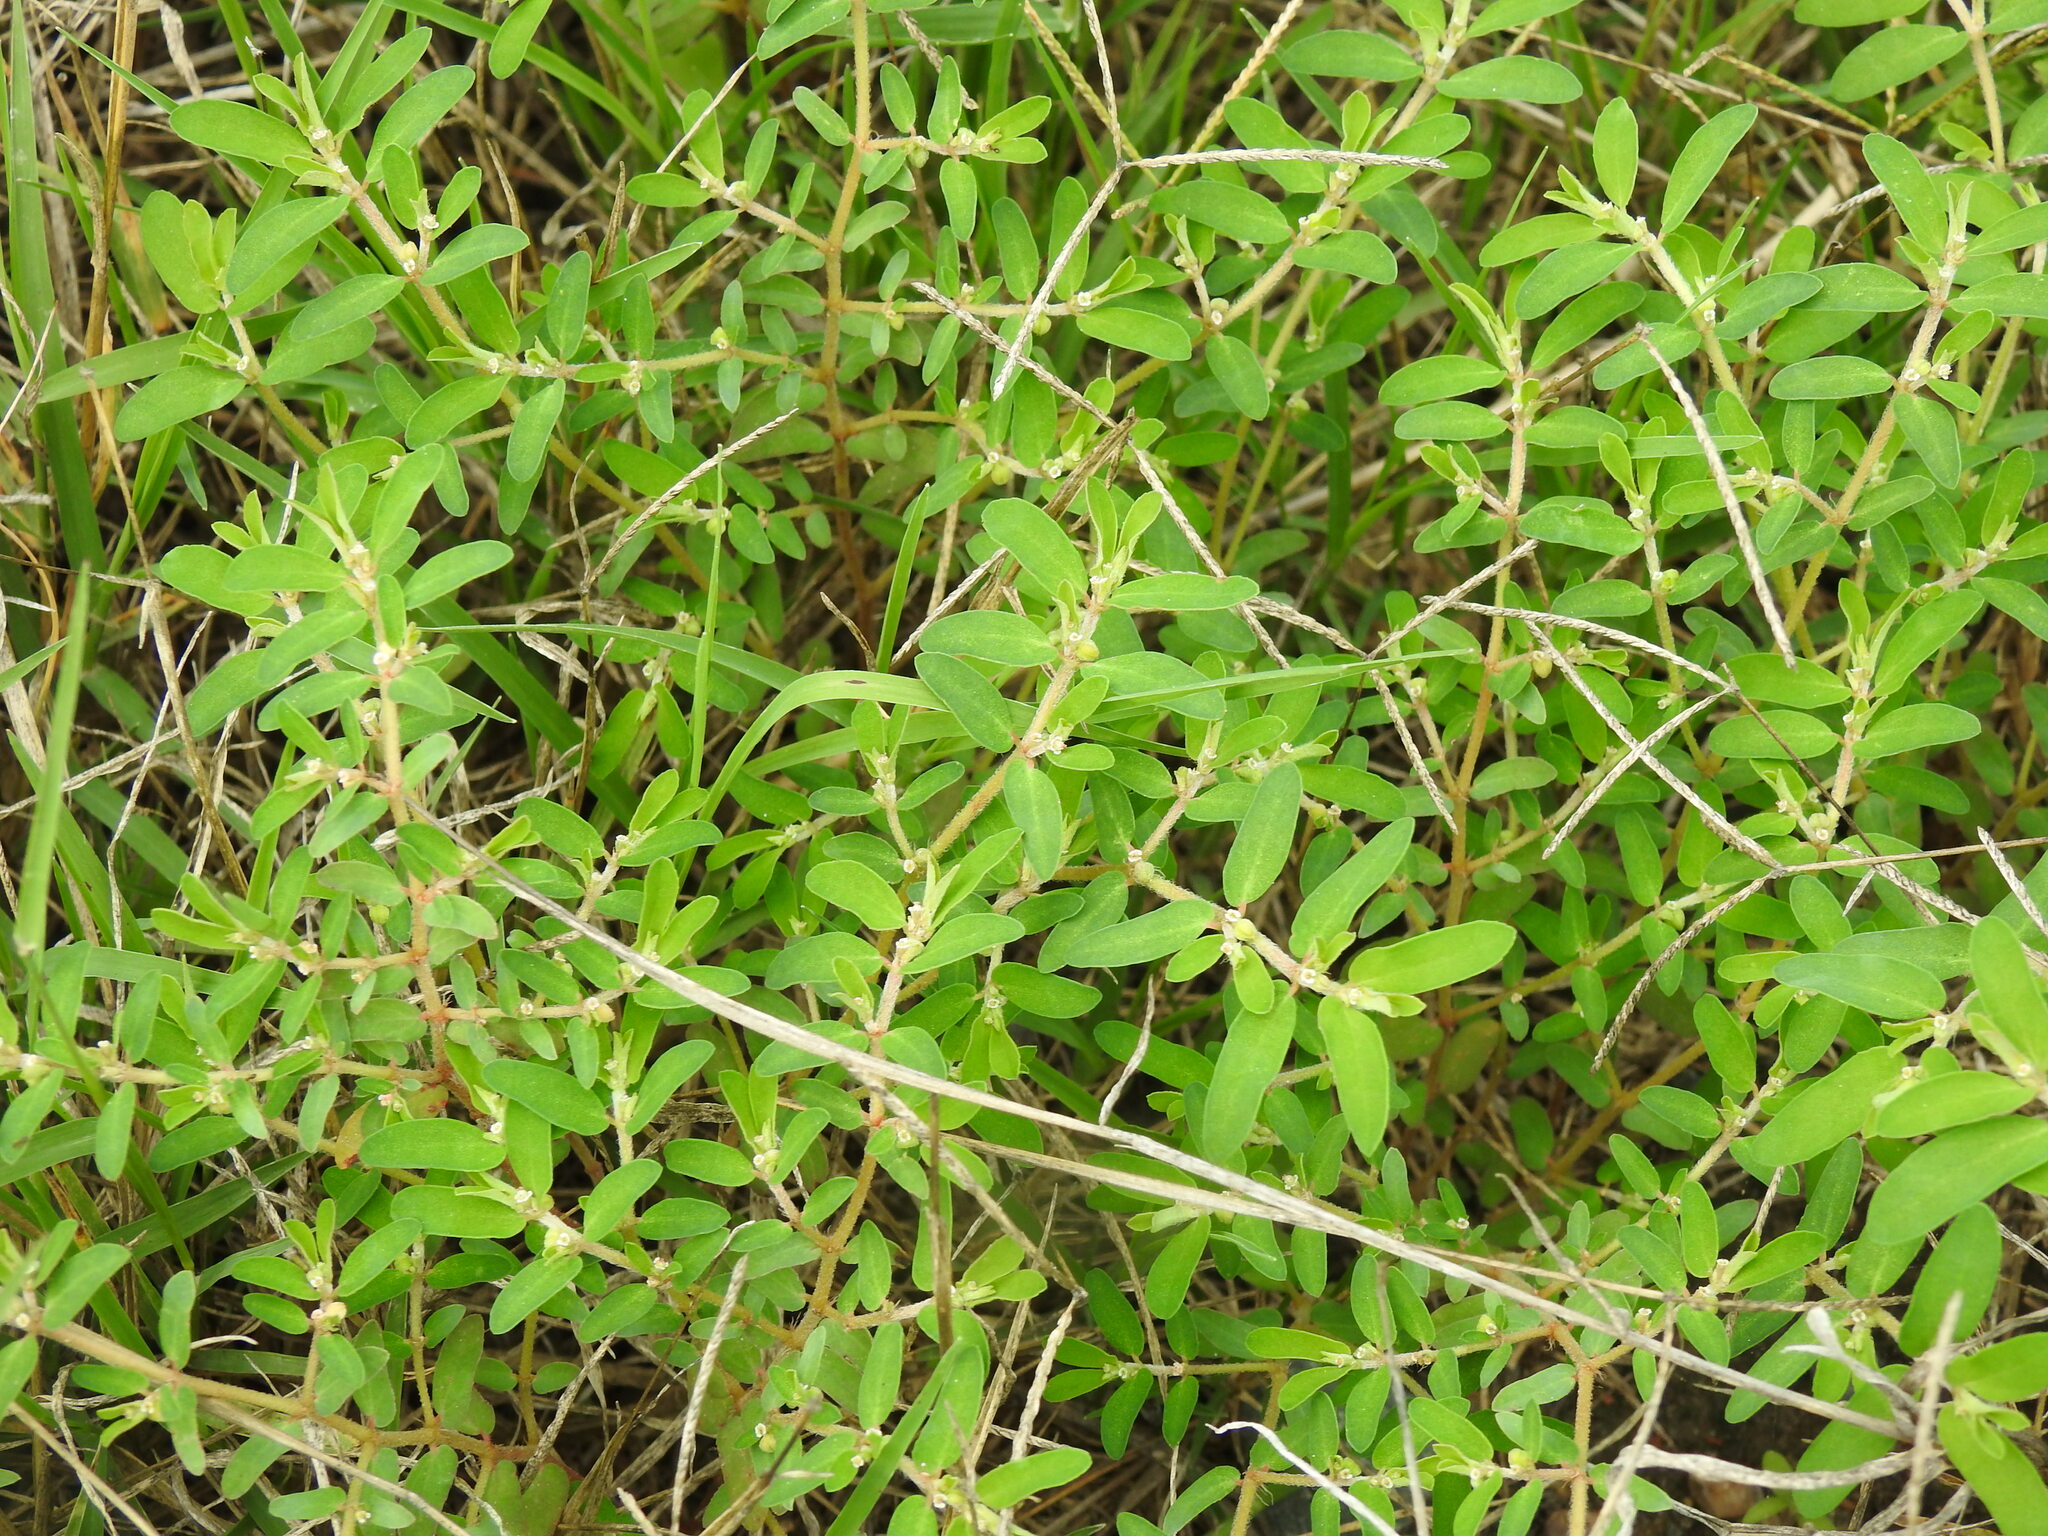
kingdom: Plantae
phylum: Tracheophyta
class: Magnoliopsida
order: Malpighiales
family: Euphorbiaceae
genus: Euphorbia
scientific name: Euphorbia maculata
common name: Spotted spurge
